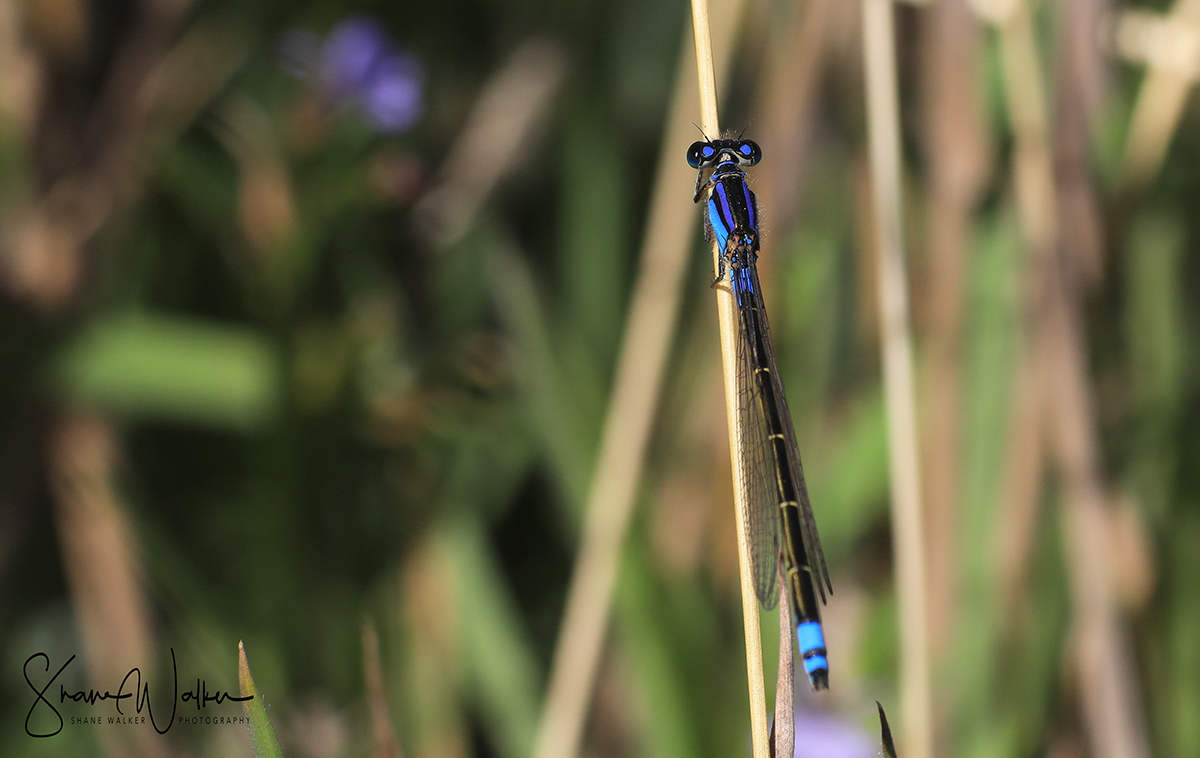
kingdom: Animalia
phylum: Arthropoda
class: Insecta
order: Odonata
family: Coenagrionidae
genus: Ischnura
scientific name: Ischnura heterosticta
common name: Common bluetail
